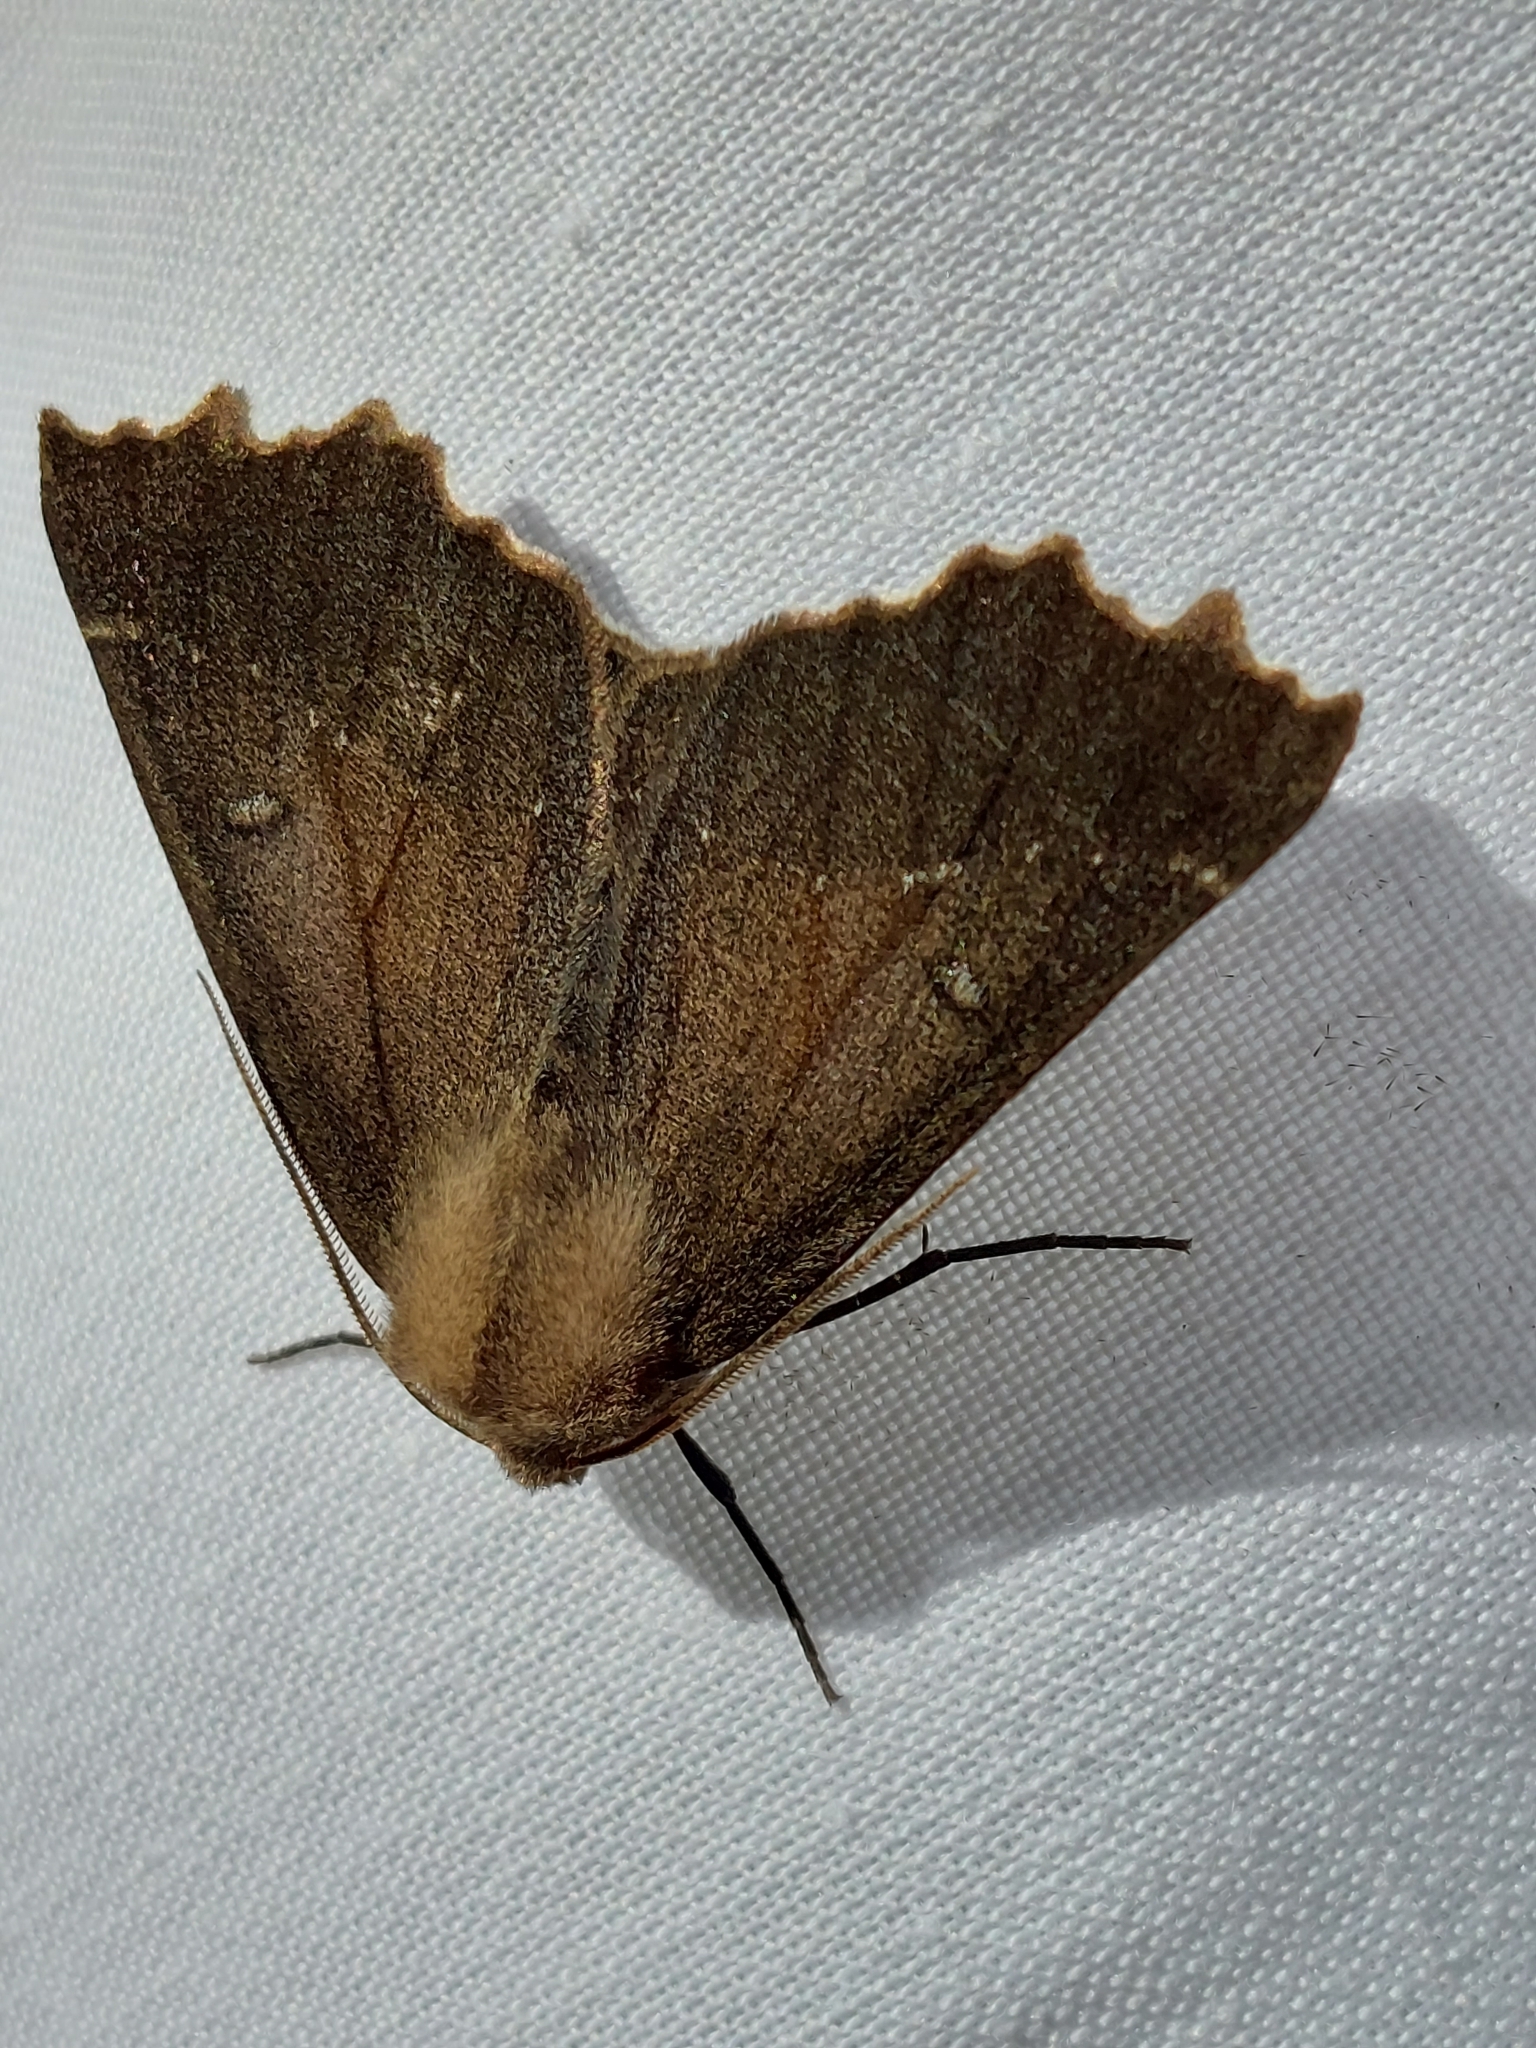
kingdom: Animalia
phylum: Arthropoda
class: Insecta
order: Lepidoptera
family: Geometridae
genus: Odontopera
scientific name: Odontopera bidentata
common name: Scalloped hazel
